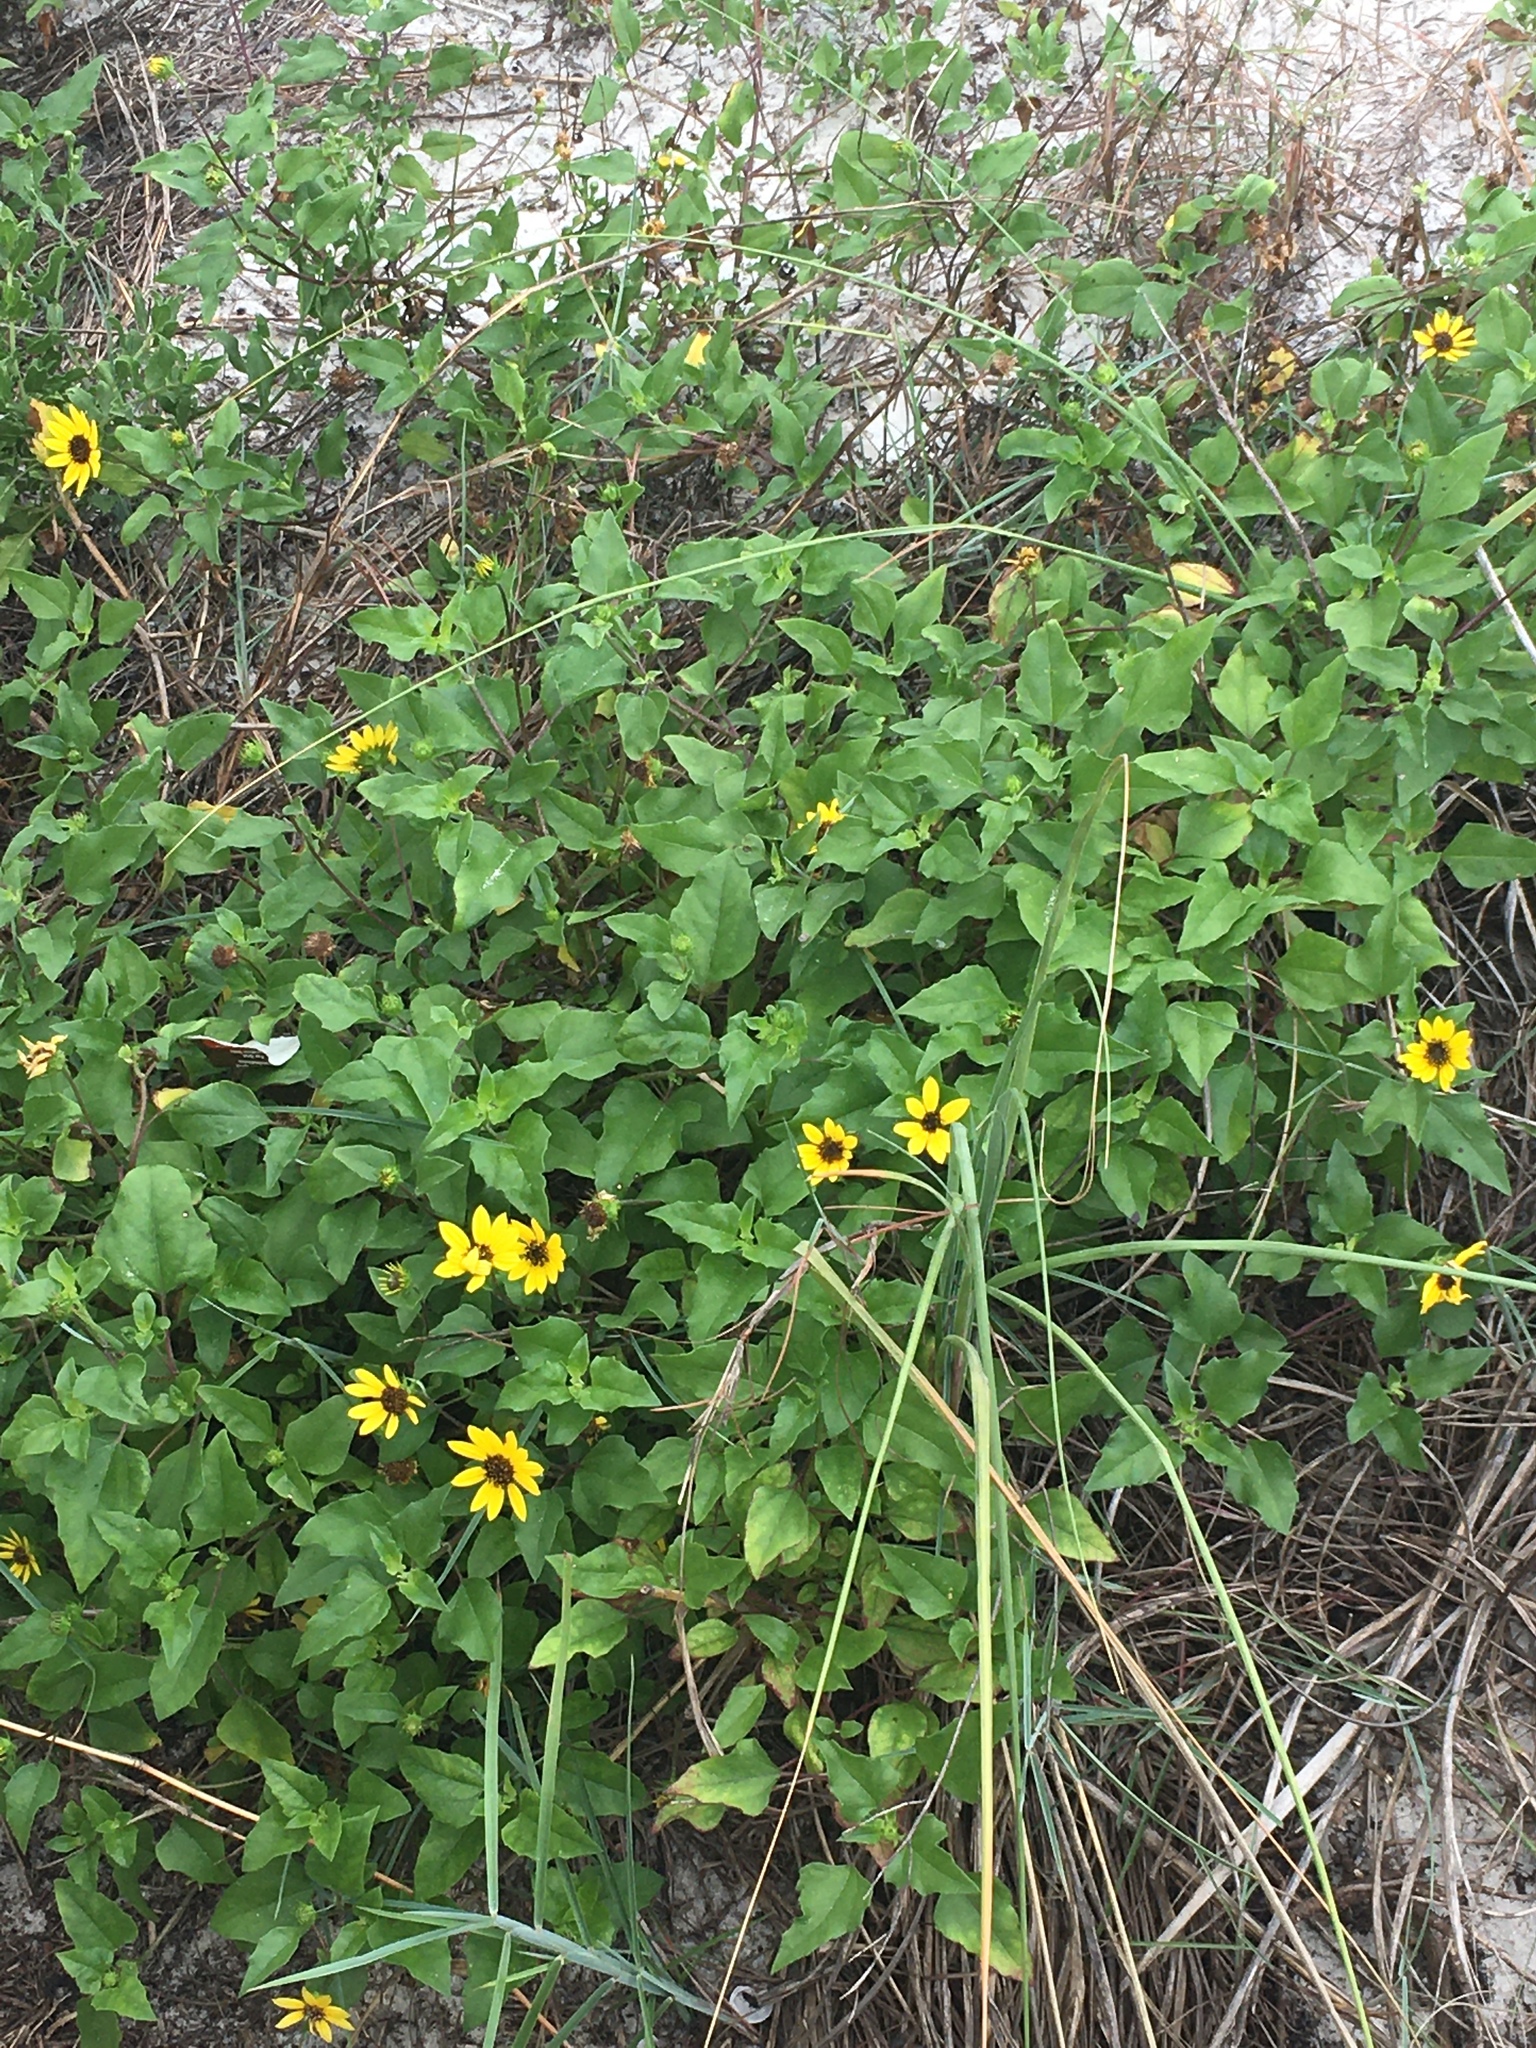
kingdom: Plantae
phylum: Tracheophyta
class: Magnoliopsida
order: Asterales
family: Asteraceae
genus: Helianthus
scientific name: Helianthus debilis
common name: Weak sunflower
